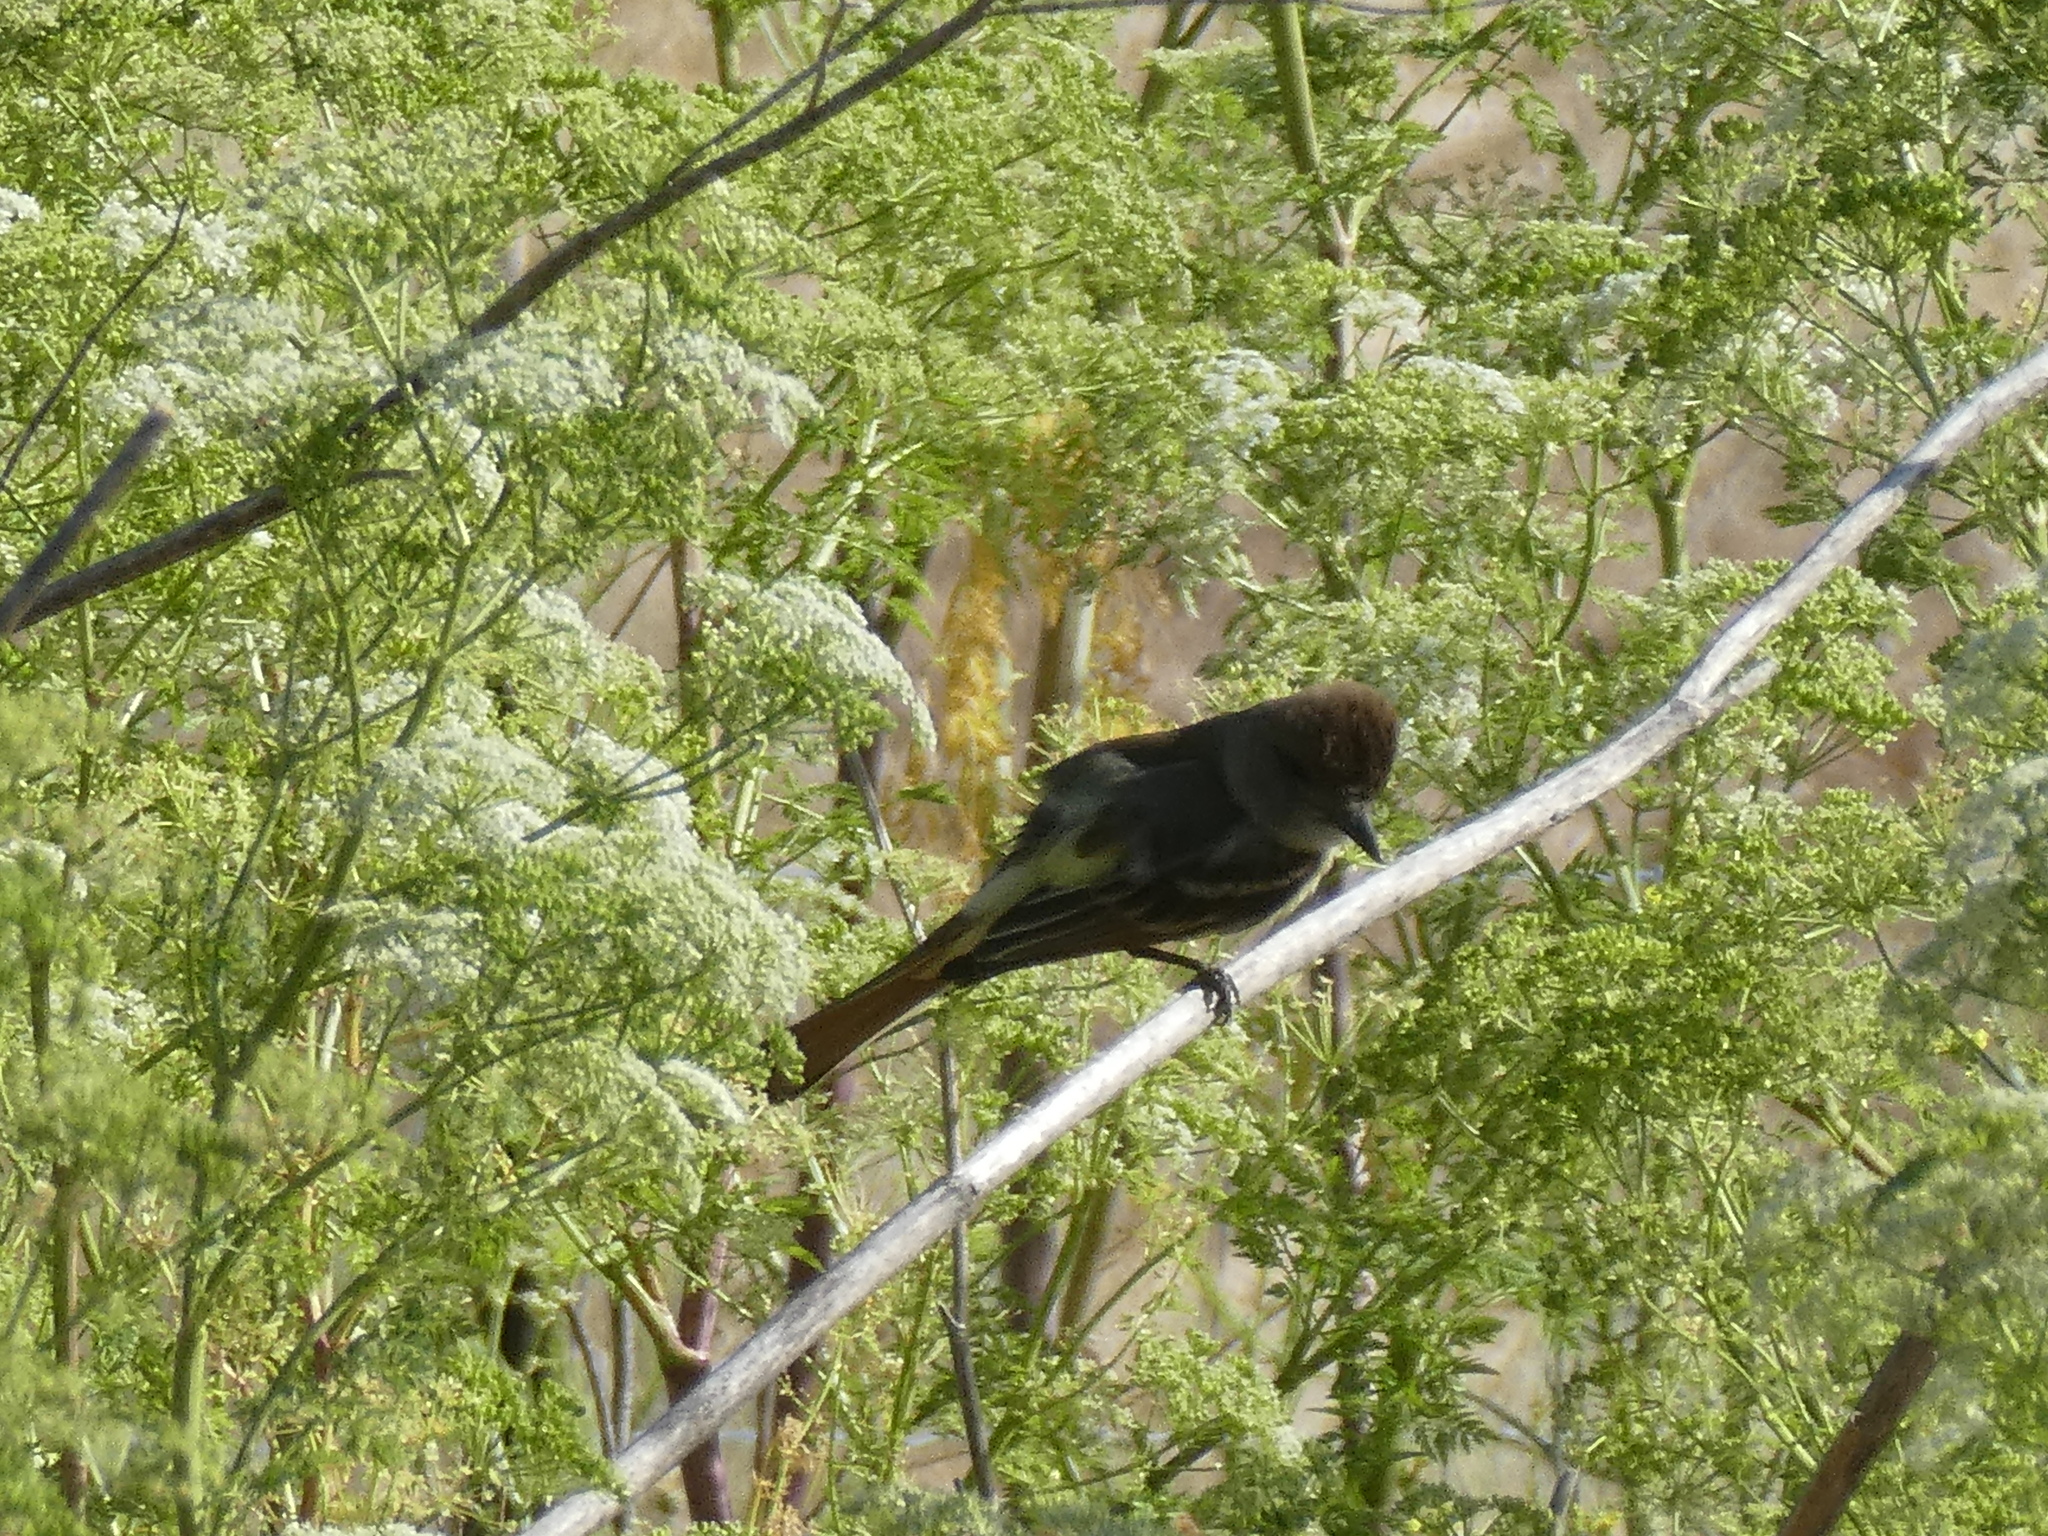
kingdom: Animalia
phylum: Chordata
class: Aves
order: Passeriformes
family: Tyrannidae
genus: Myiarchus
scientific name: Myiarchus cinerascens
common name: Ash-throated flycatcher
